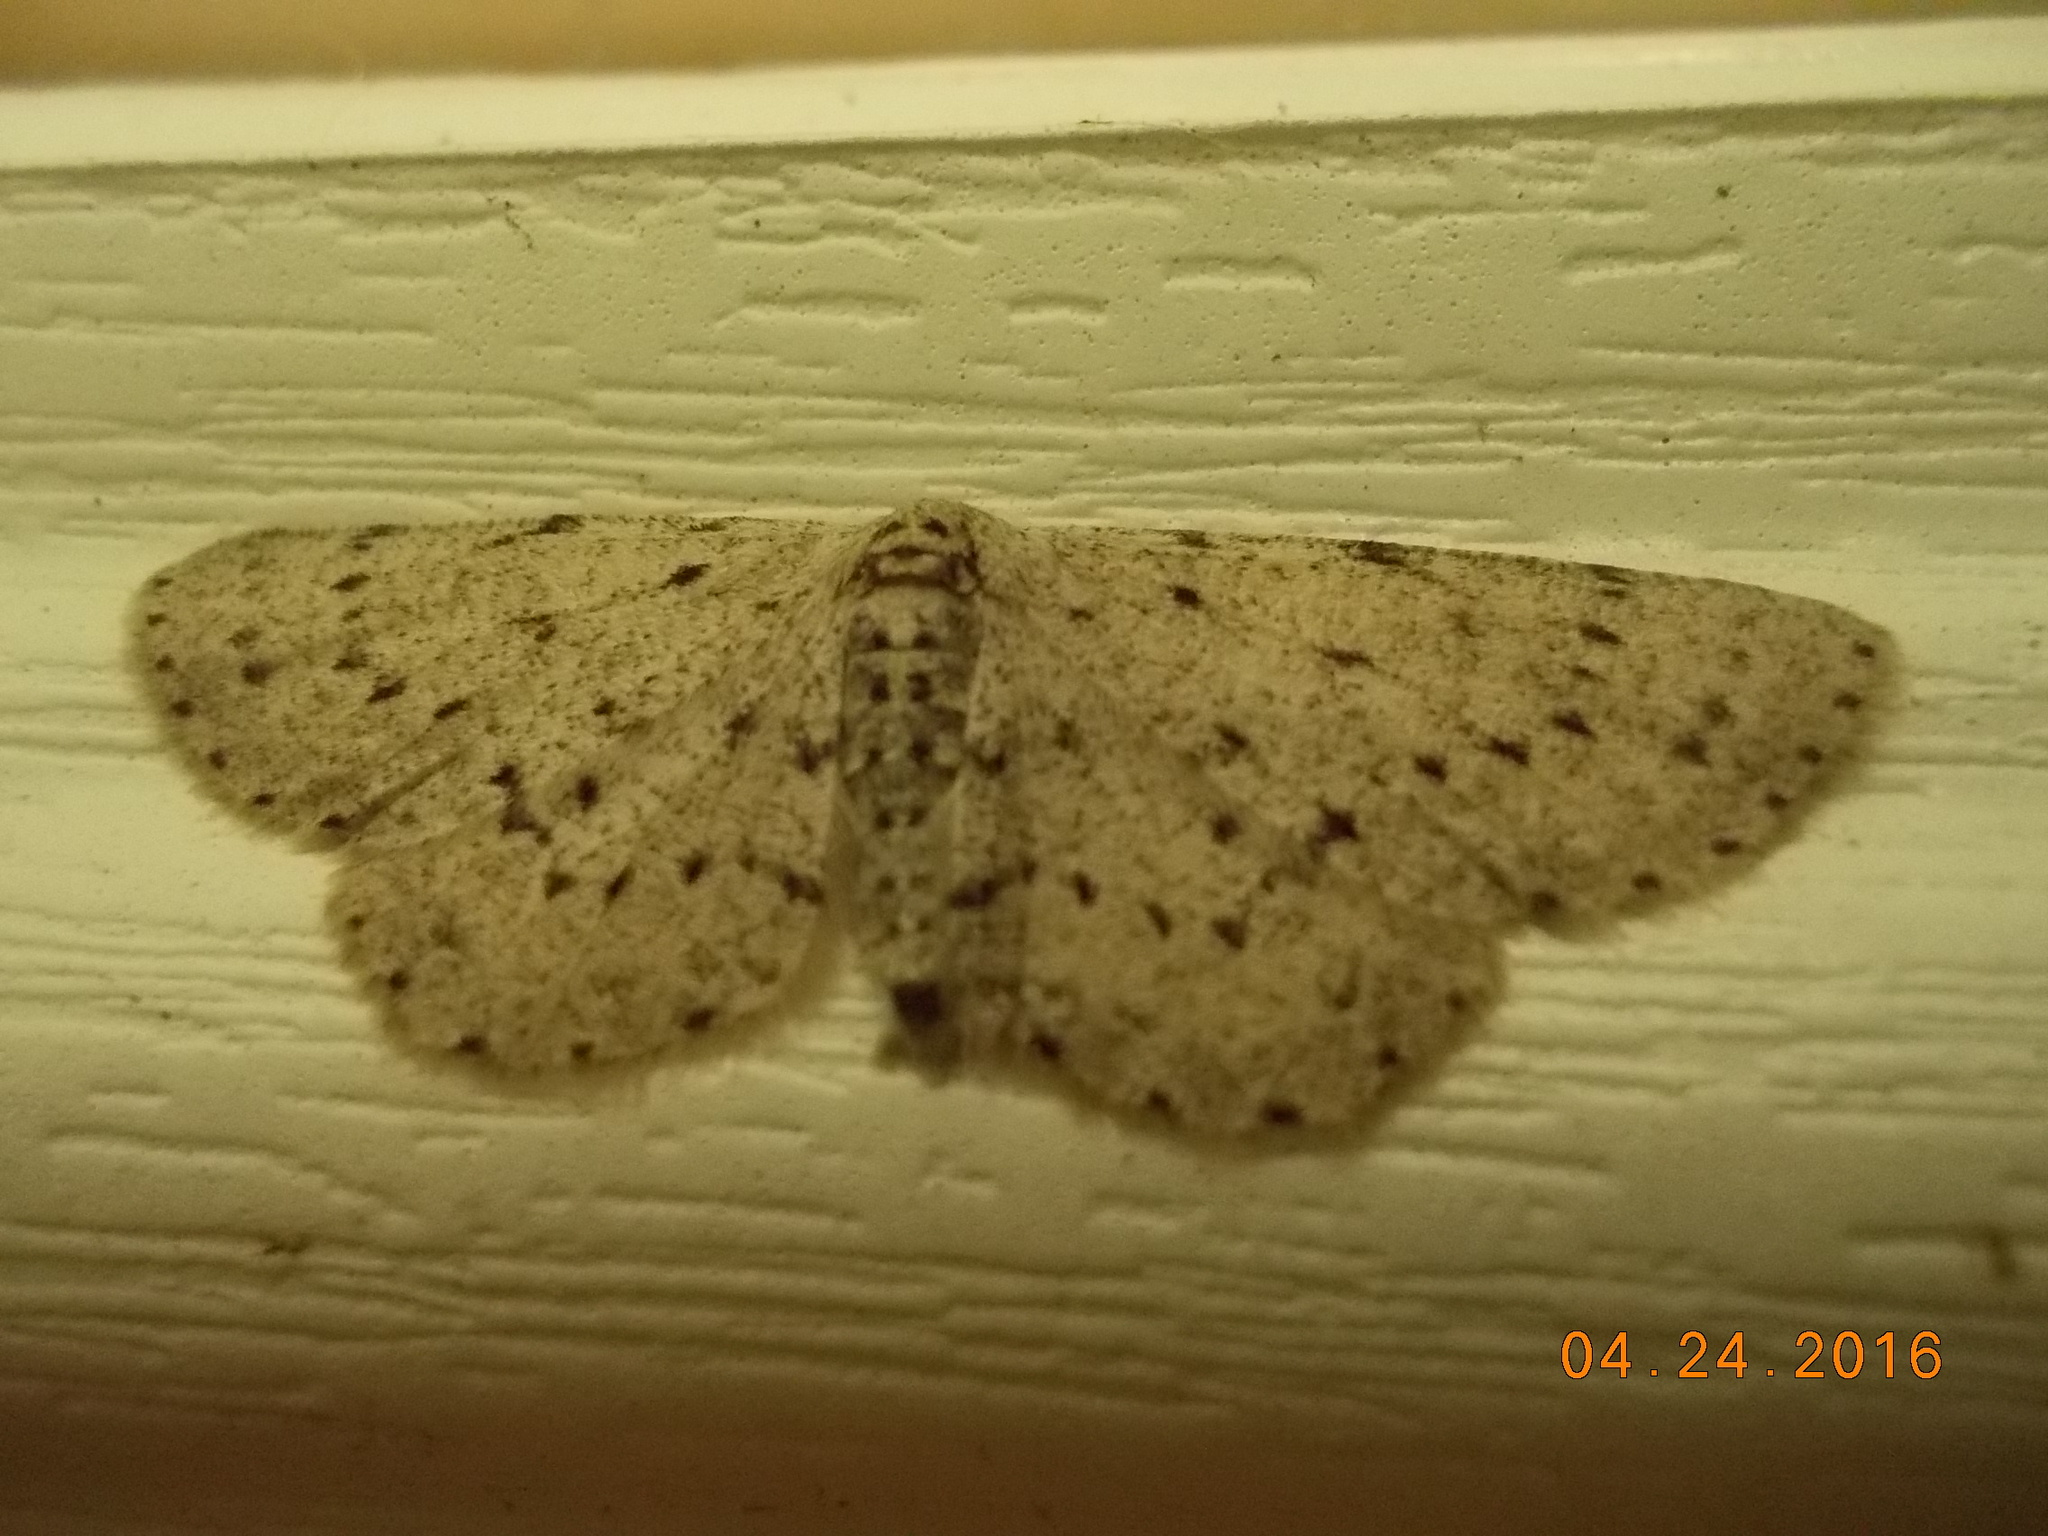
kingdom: Animalia
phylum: Arthropoda
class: Insecta
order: Lepidoptera
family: Geometridae
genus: Glena
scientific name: Glena cribrataria
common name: Dotted gray
